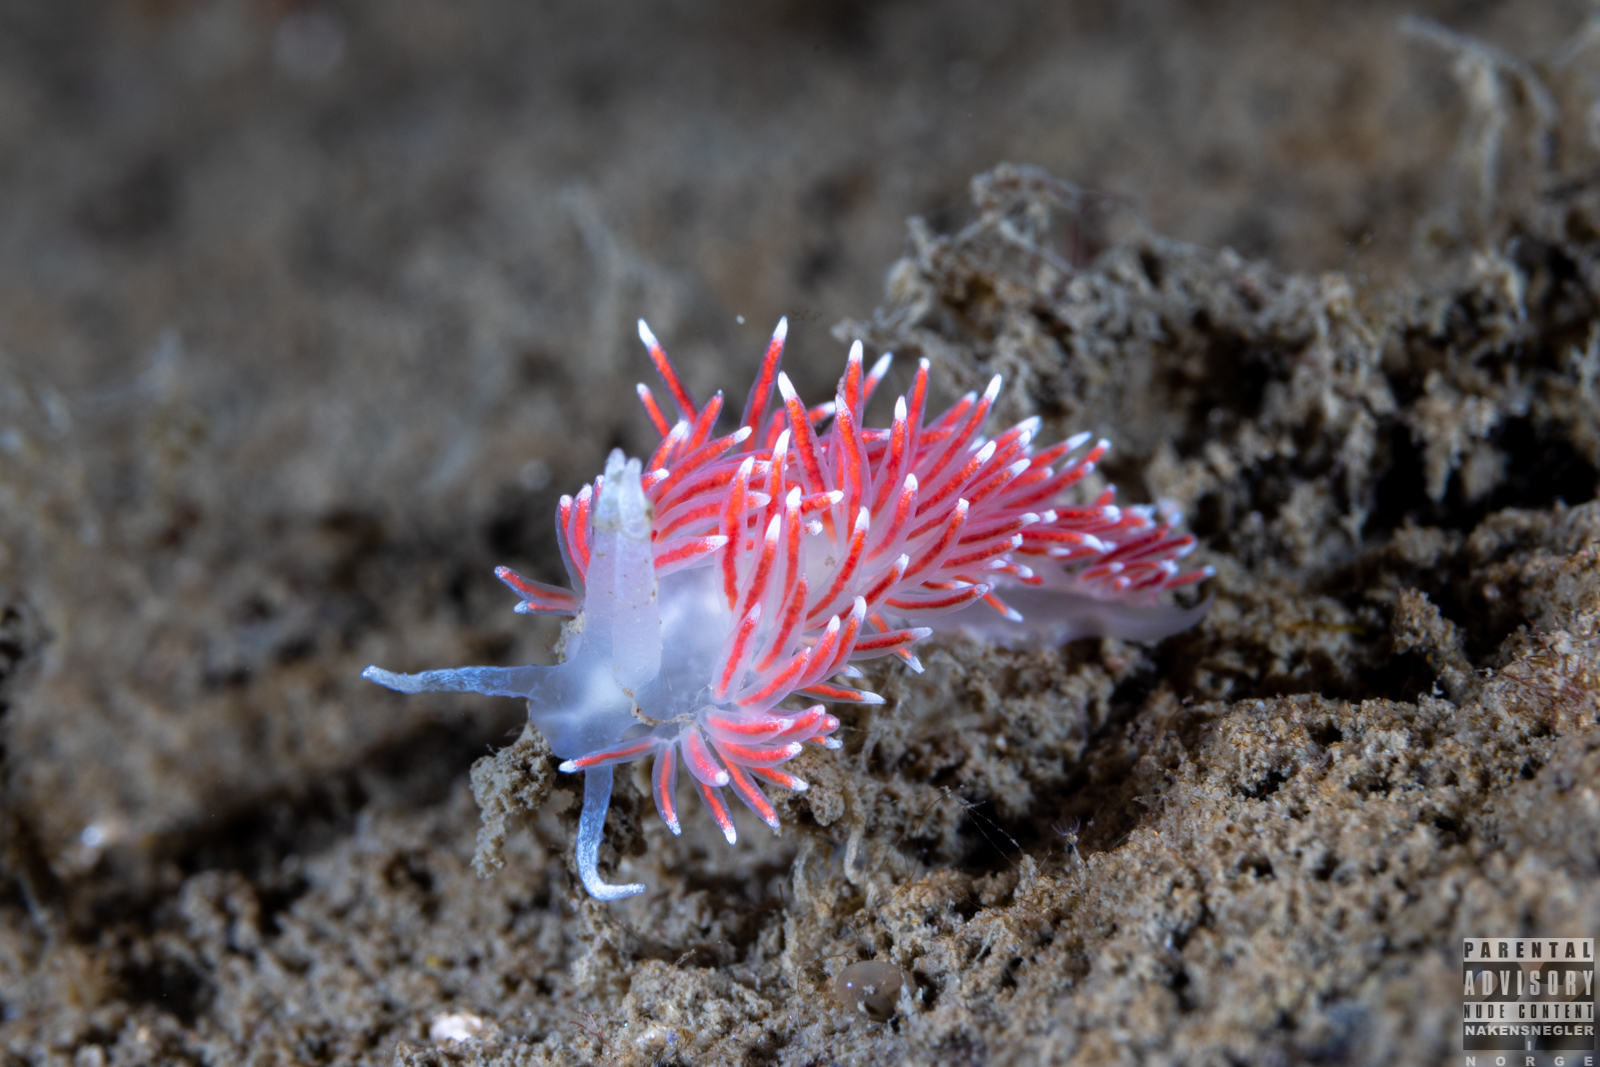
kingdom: Animalia
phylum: Mollusca
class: Gastropoda
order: Nudibranchia
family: Flabellinidae
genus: Carronella
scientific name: Carronella pellucida
